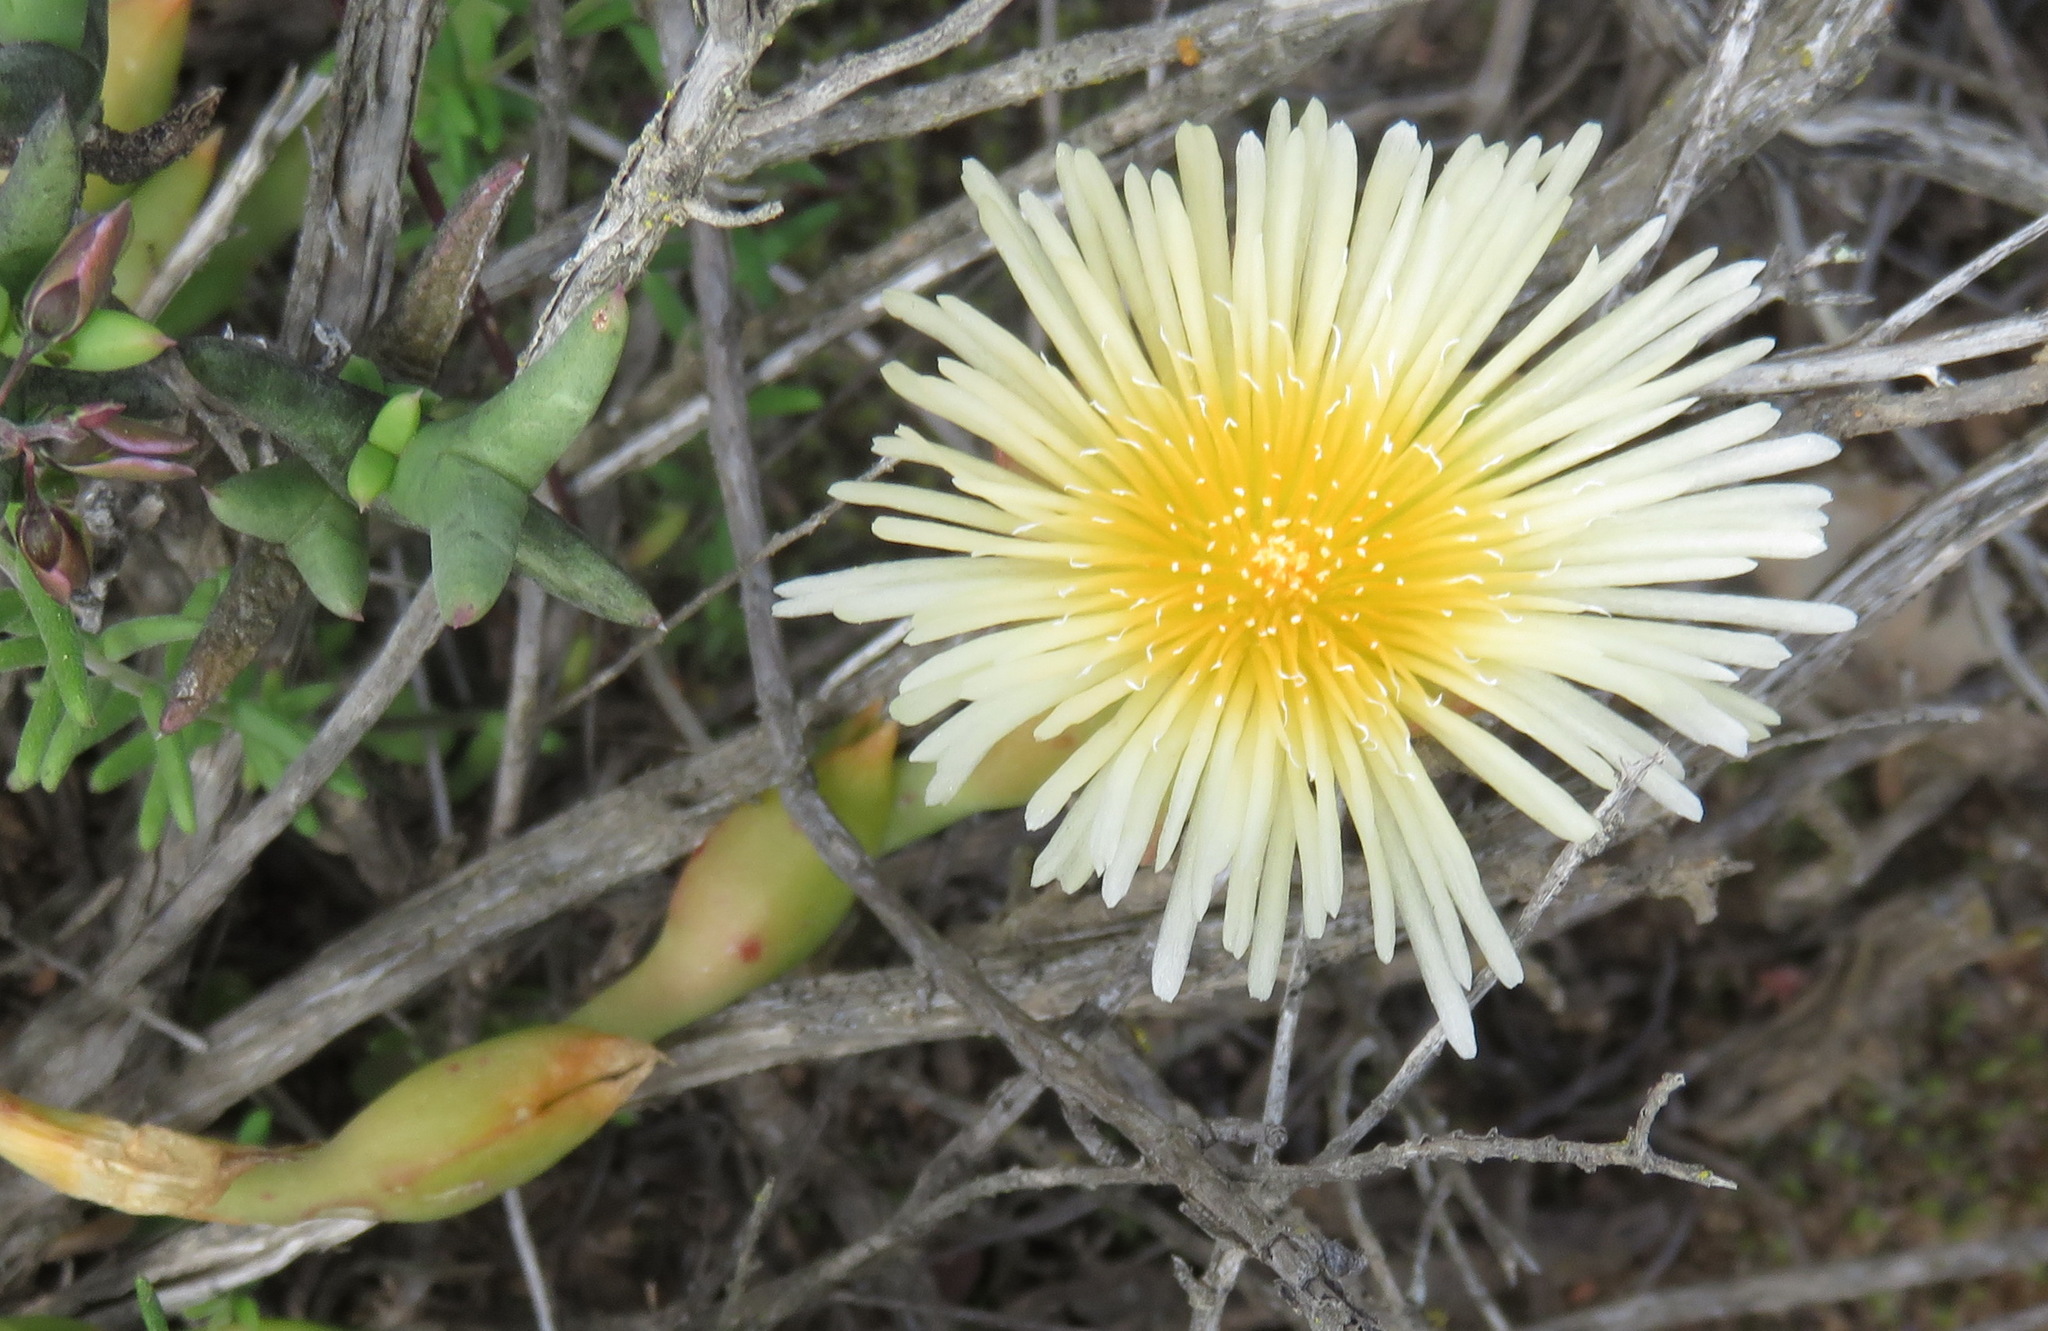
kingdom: Plantae
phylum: Tracheophyta
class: Magnoliopsida
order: Caryophyllales
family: Aizoaceae
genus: Mesembryanthemum
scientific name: Mesembryanthemum tortuosum
